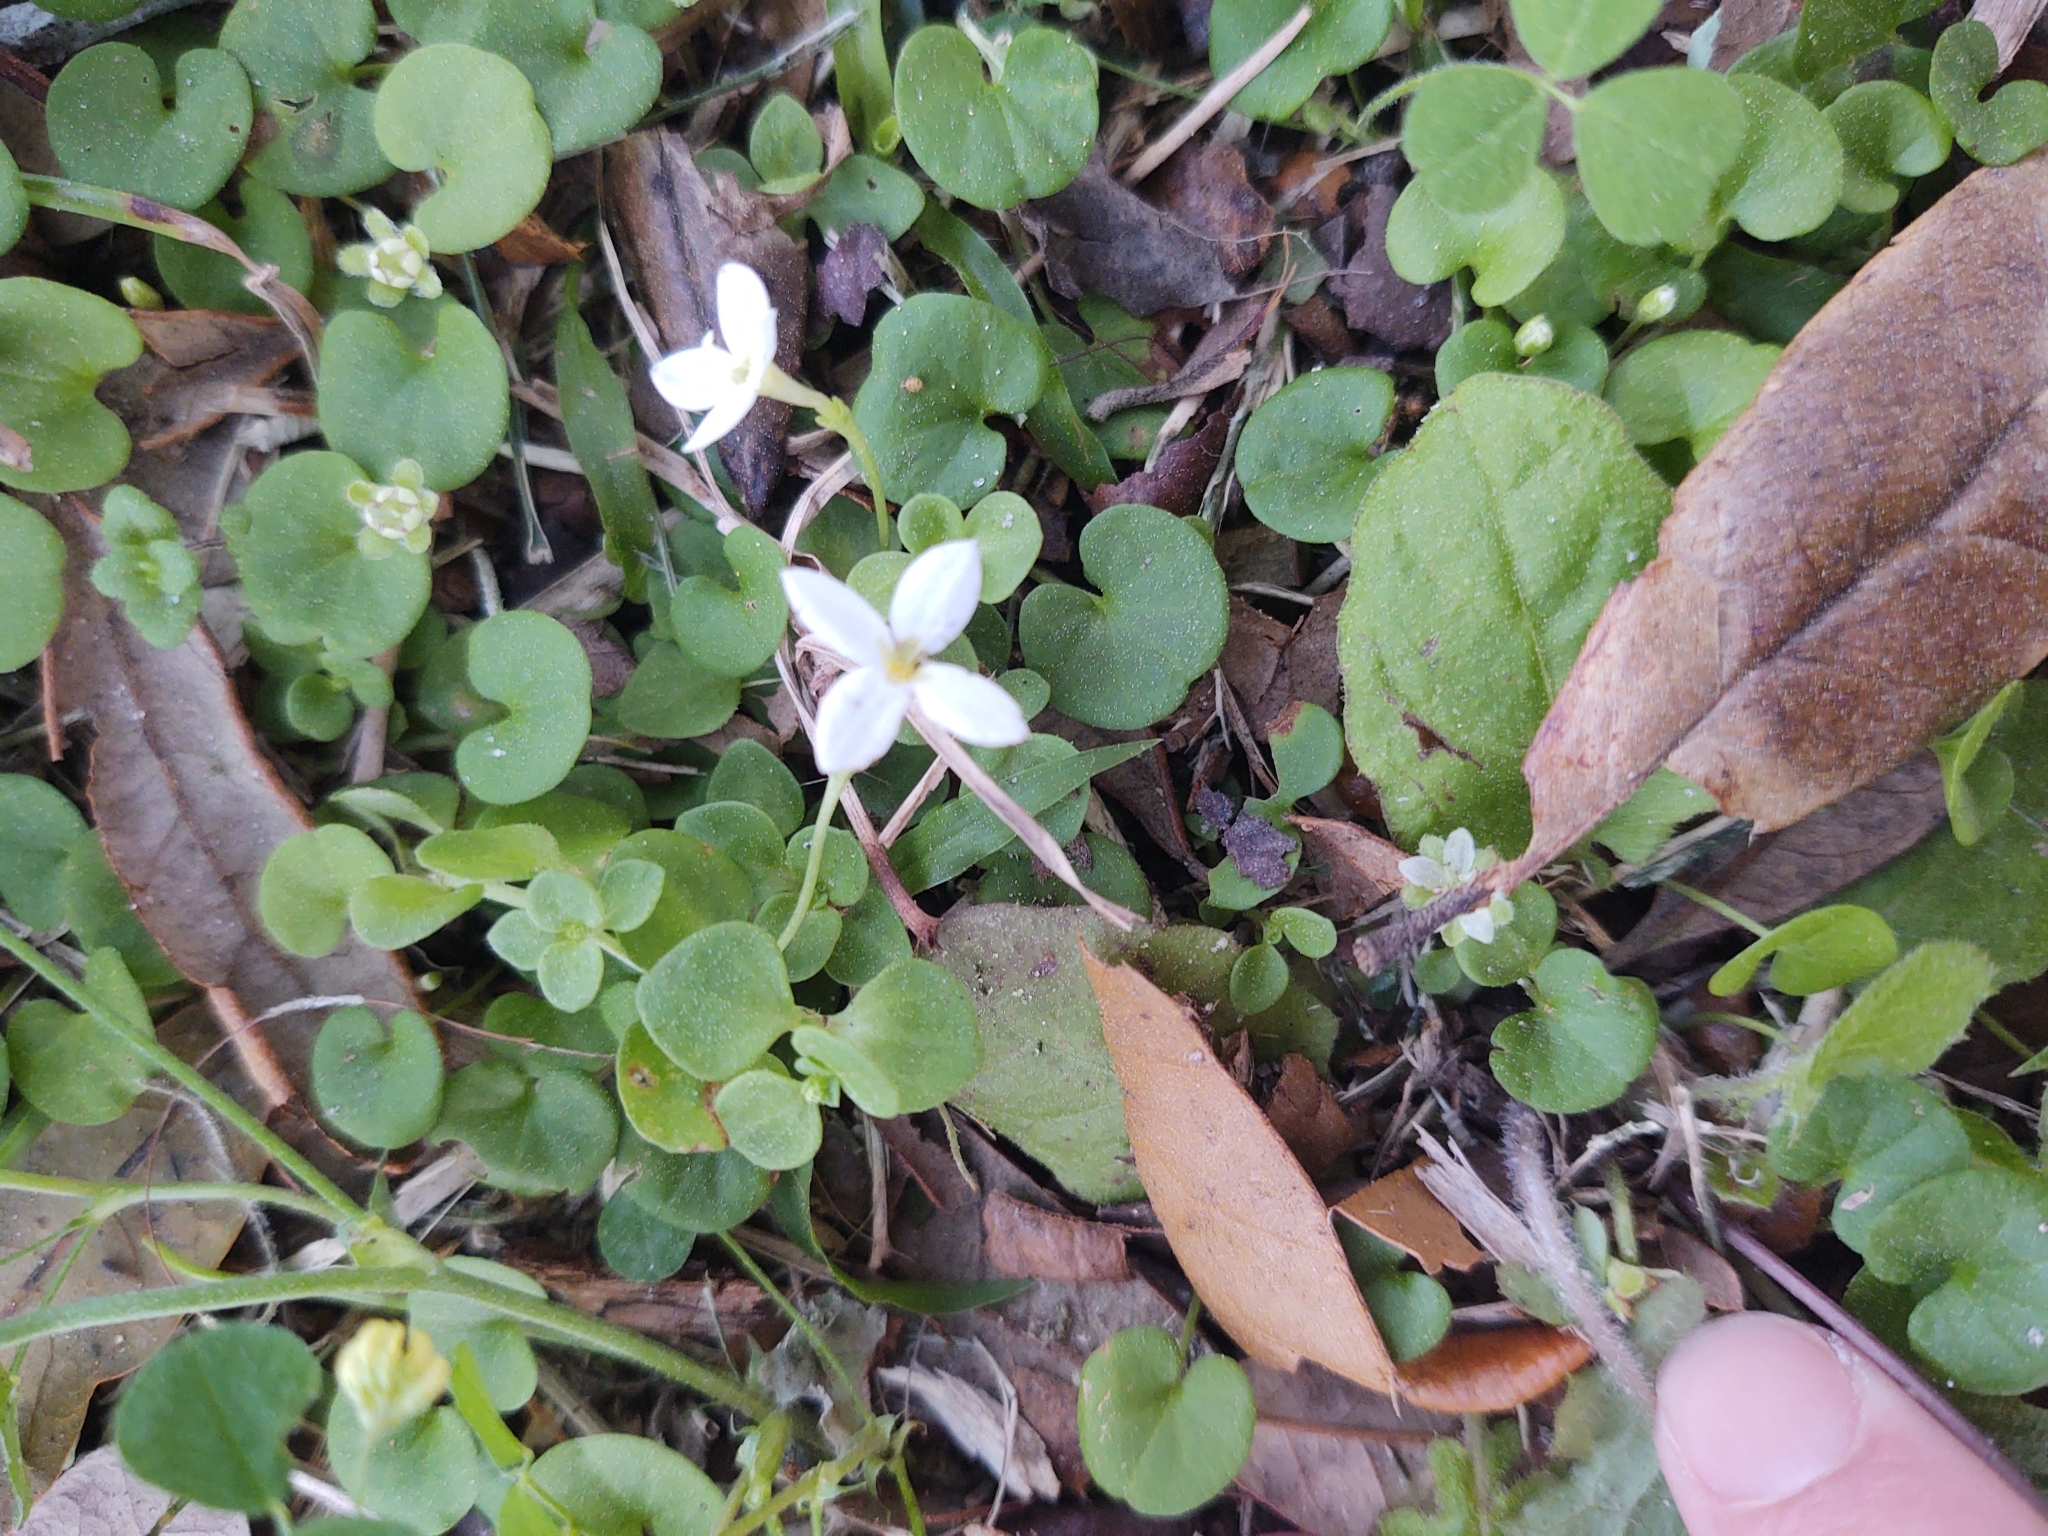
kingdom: Plantae
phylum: Tracheophyta
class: Magnoliopsida
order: Gentianales
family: Rubiaceae
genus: Houstonia
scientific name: Houstonia procumbens
